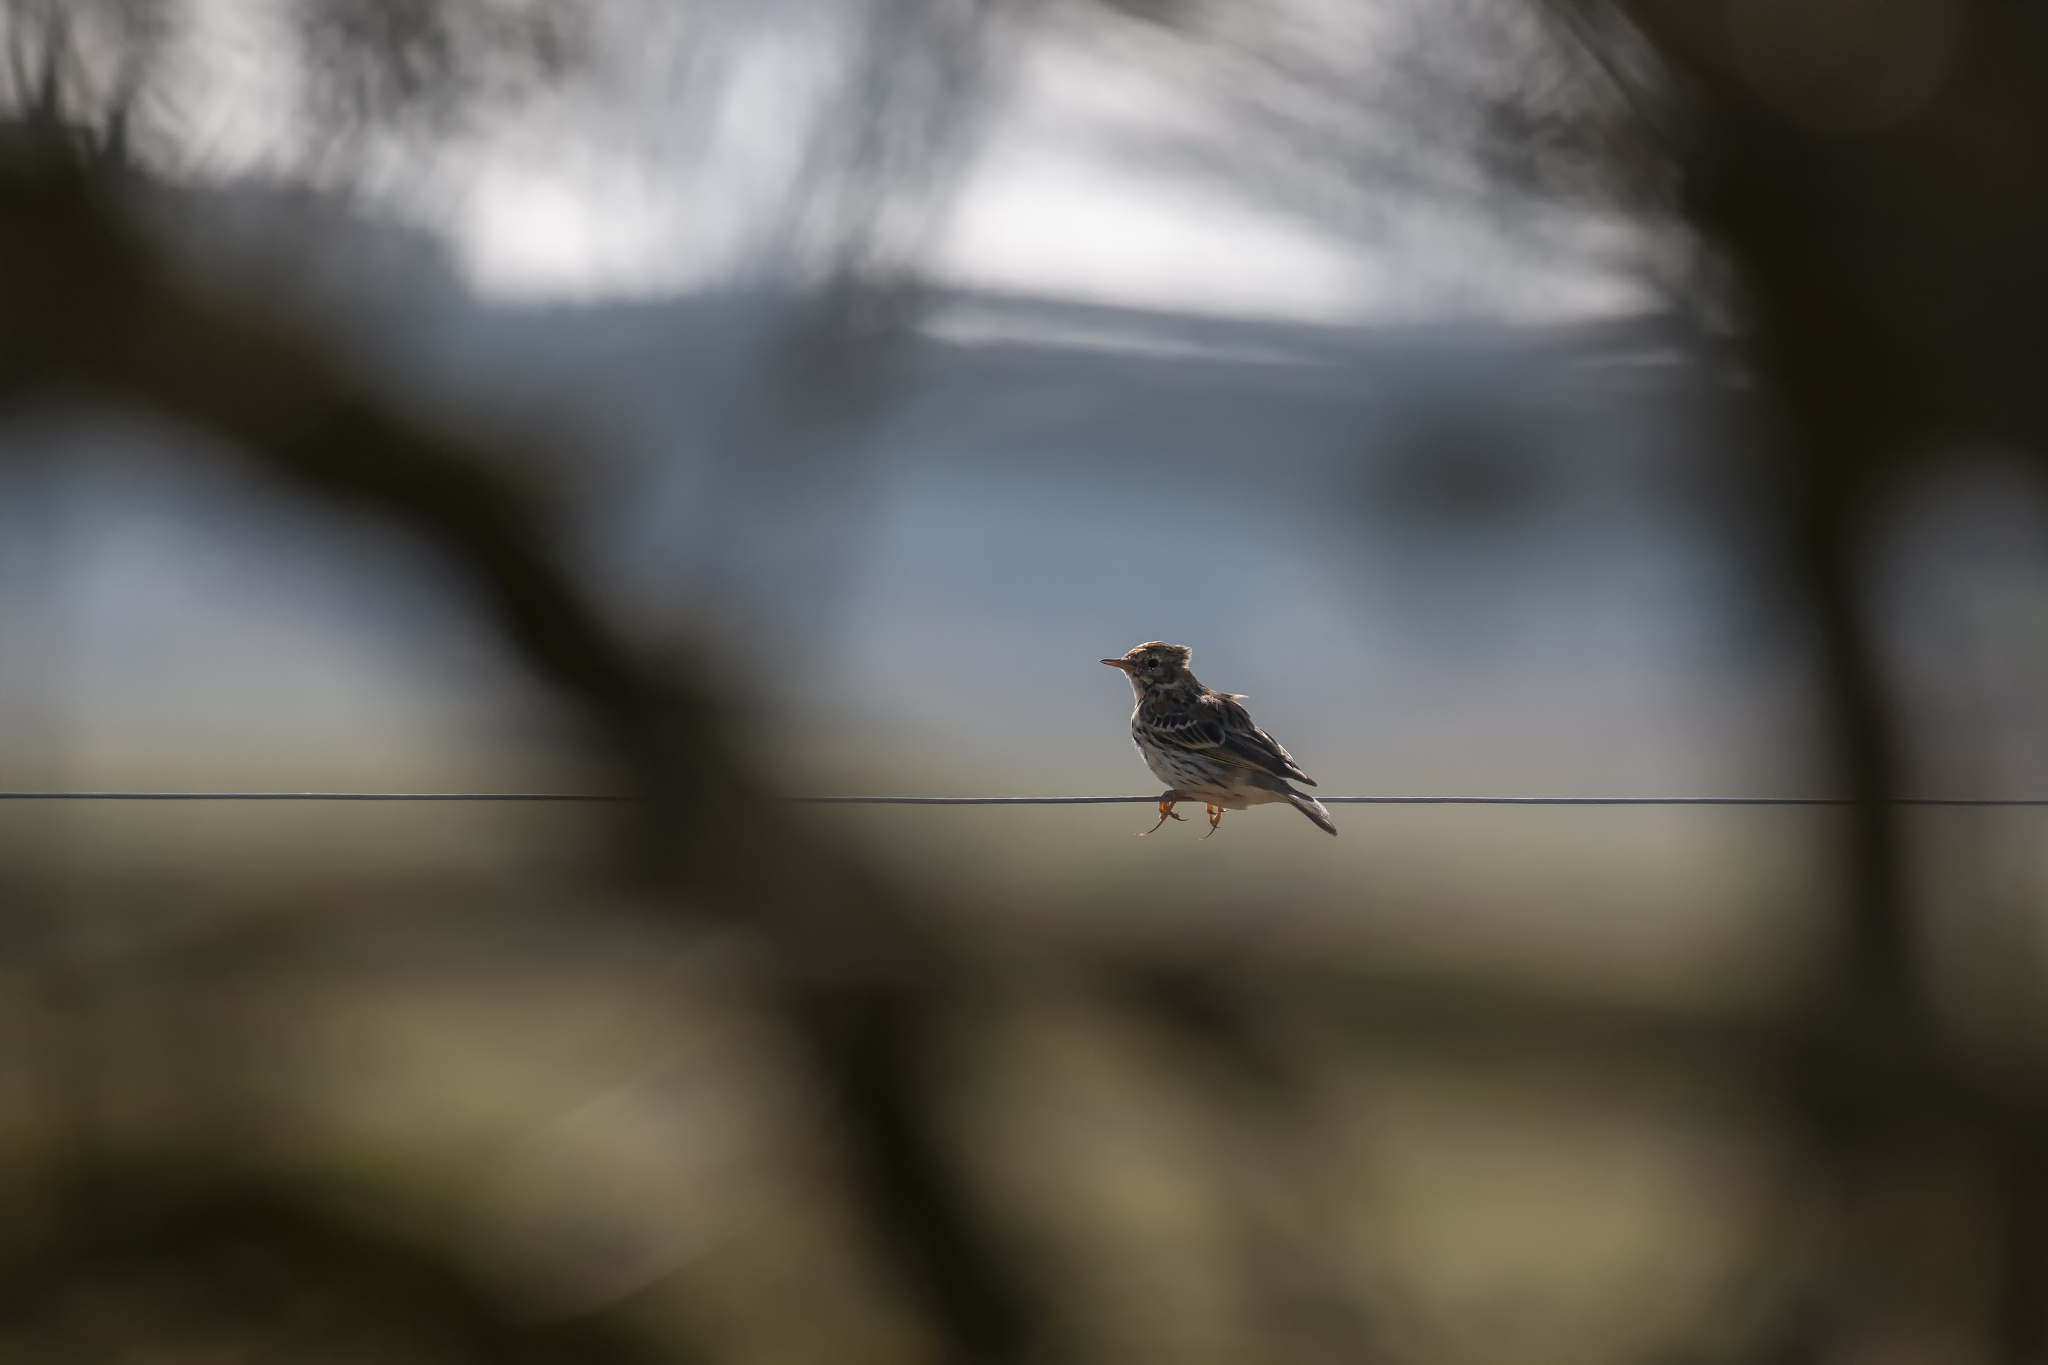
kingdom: Animalia
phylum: Chordata
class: Aves
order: Passeriformes
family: Motacillidae
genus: Anthus
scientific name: Anthus pratensis
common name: Meadow pipit
